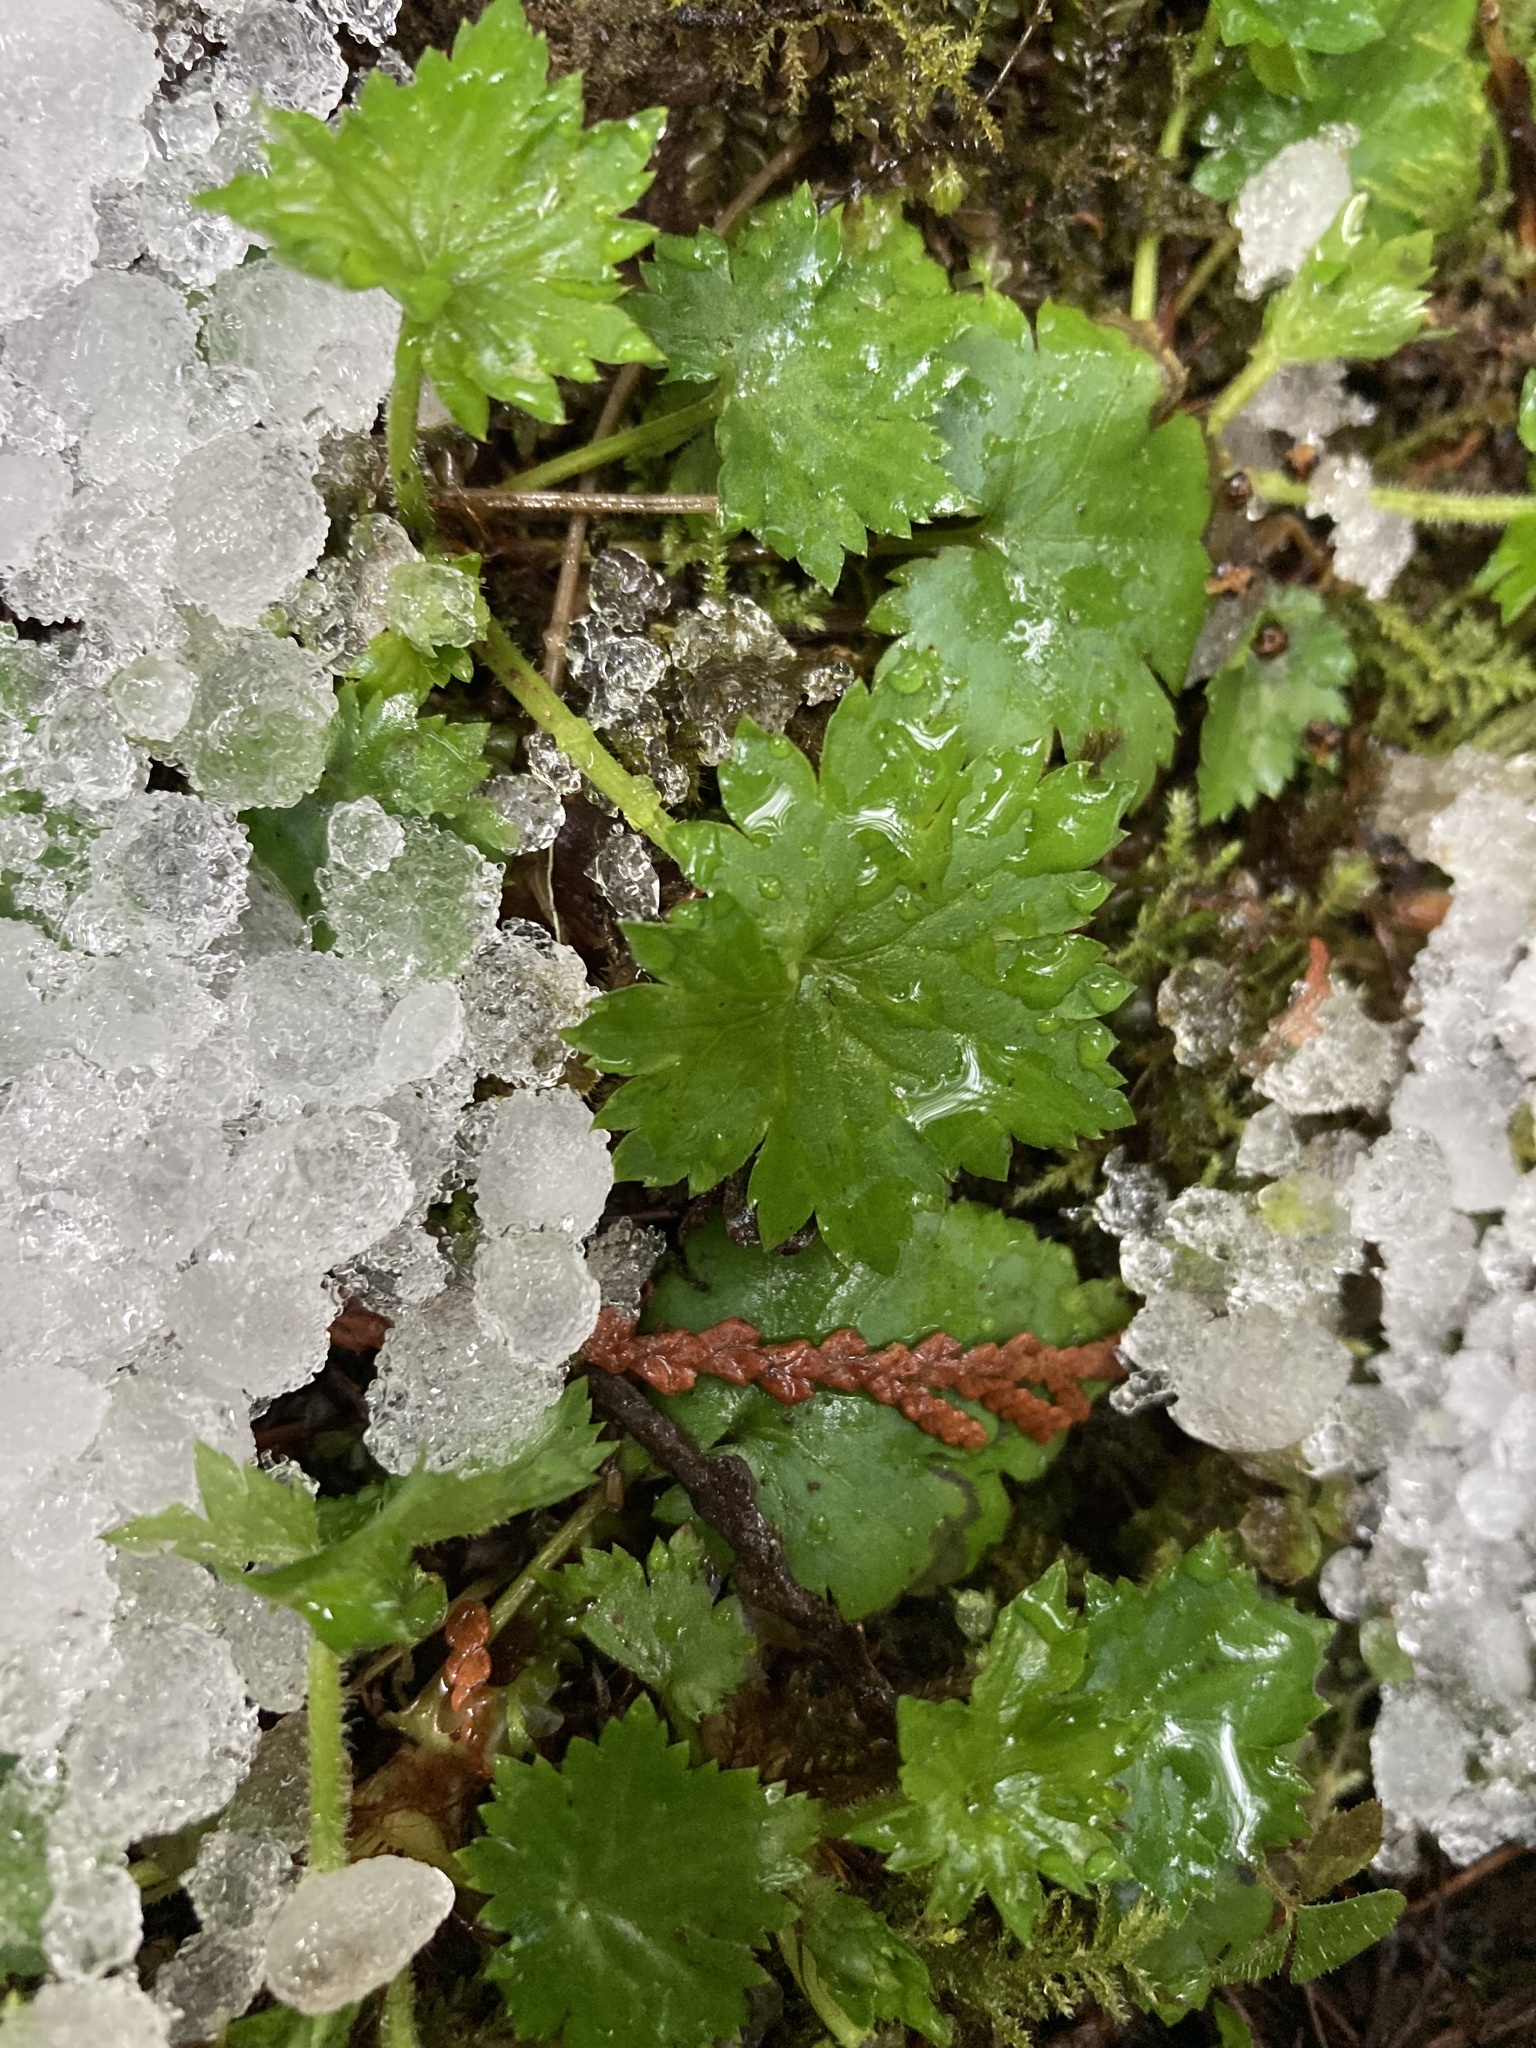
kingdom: Plantae
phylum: Tracheophyta
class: Magnoliopsida
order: Saxifragales
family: Saxifragaceae
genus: Boykinia
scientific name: Boykinia occidentalis
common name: Coast boykinia
